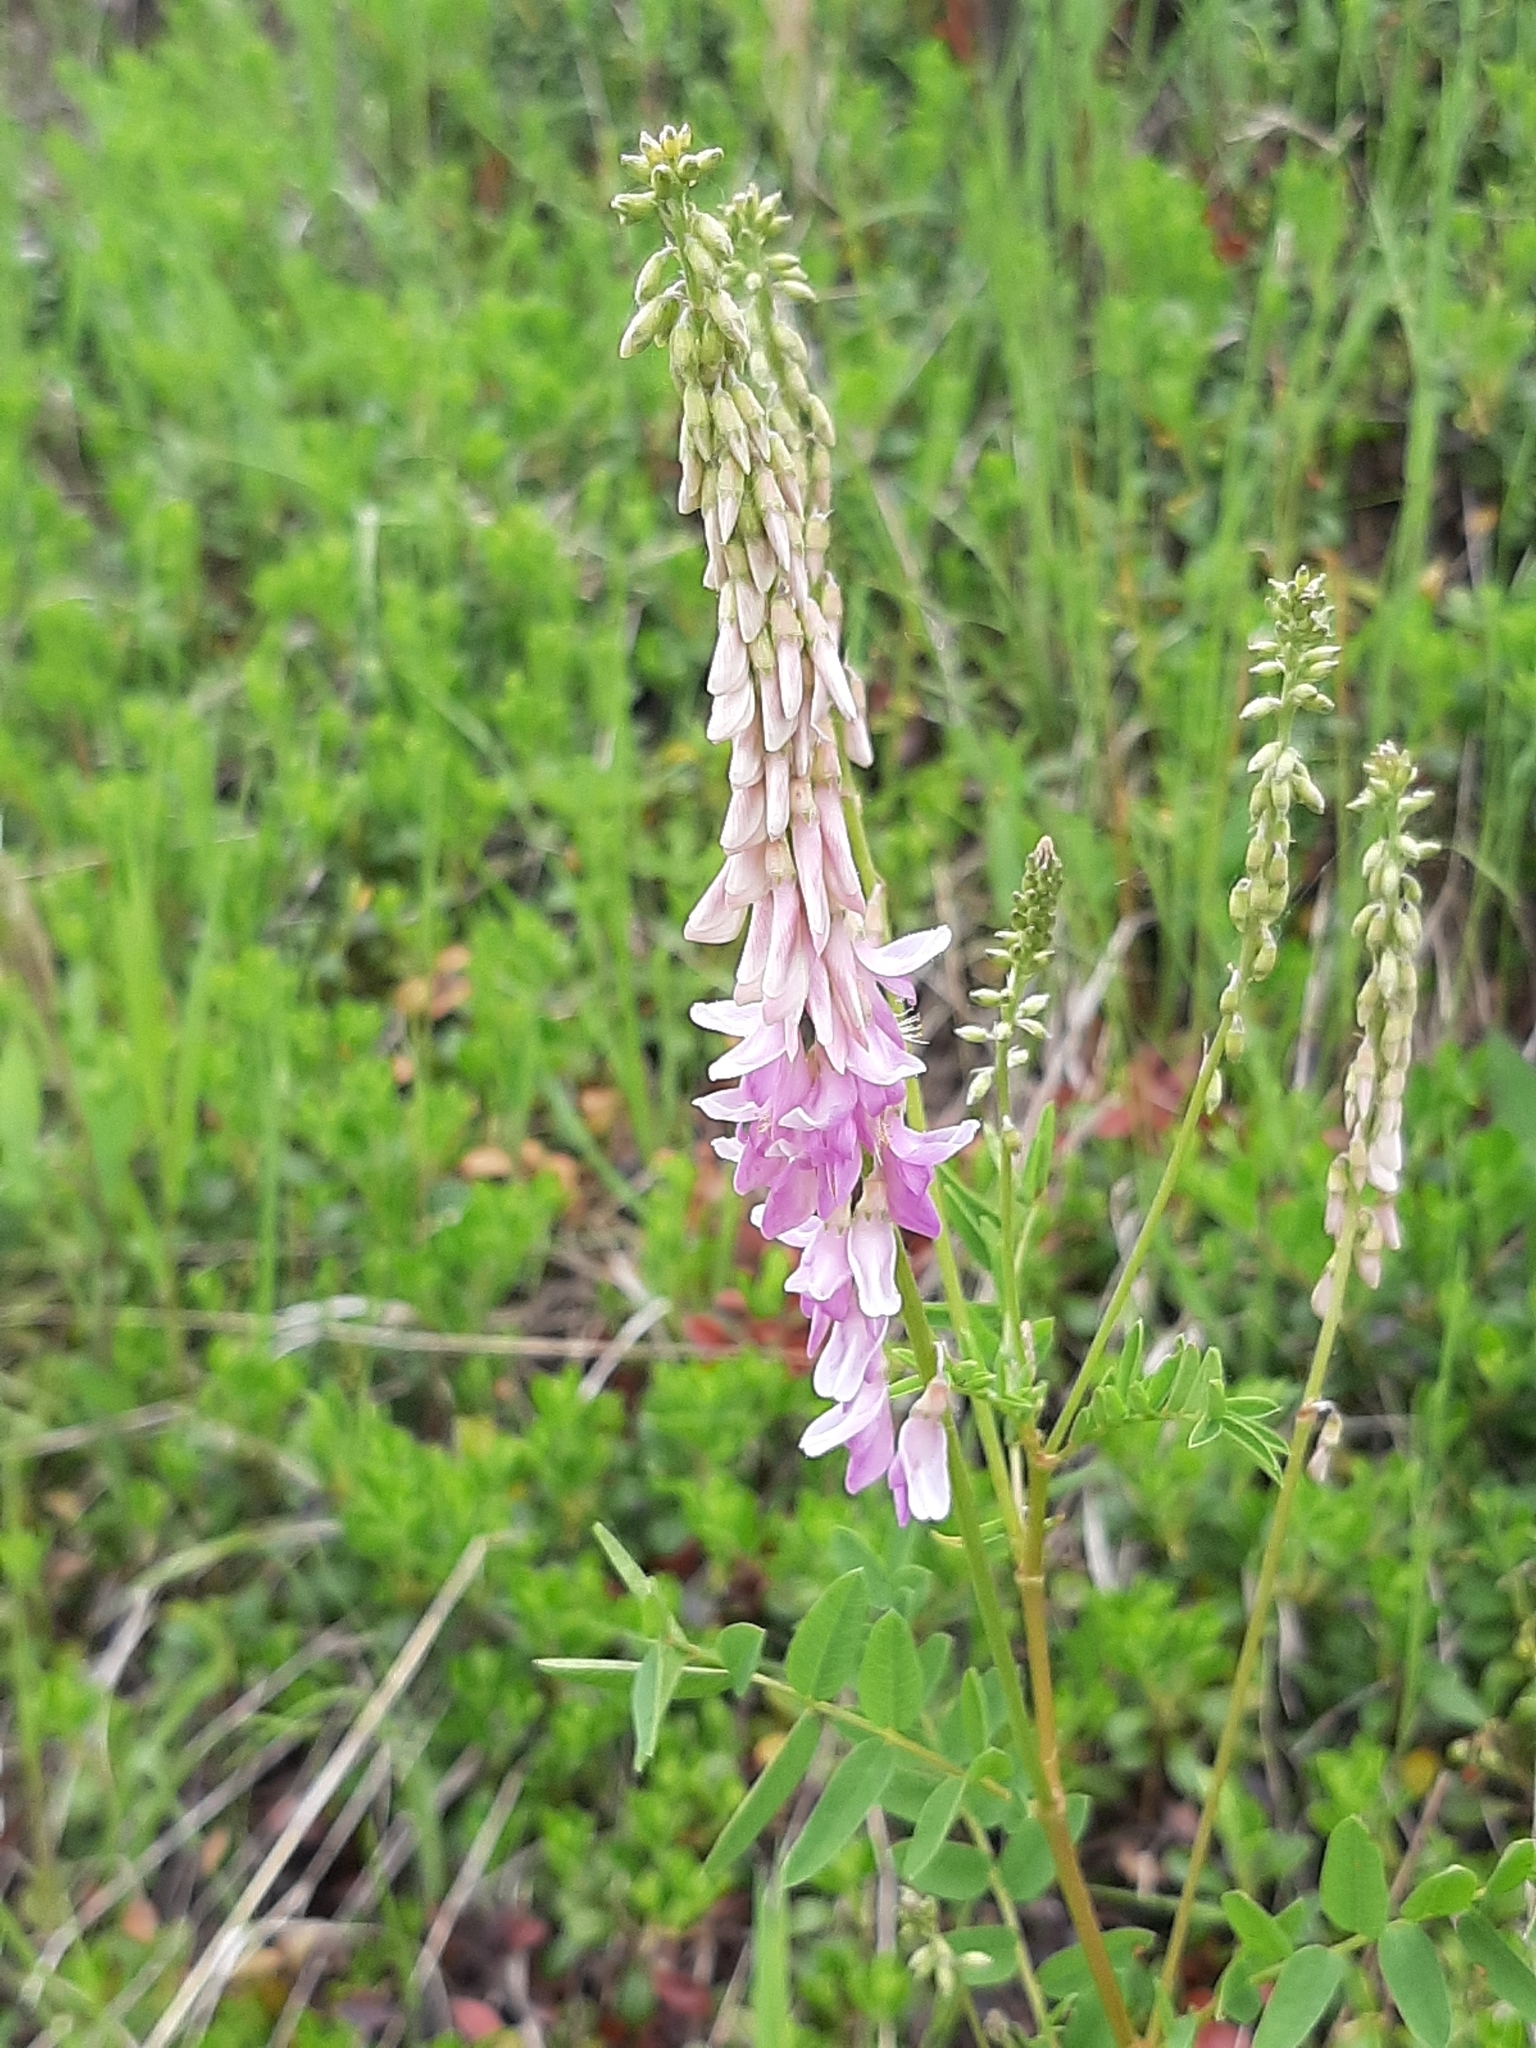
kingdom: Plantae
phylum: Tracheophyta
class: Magnoliopsida
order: Fabales
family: Fabaceae
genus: Hedysarum
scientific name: Hedysarum
